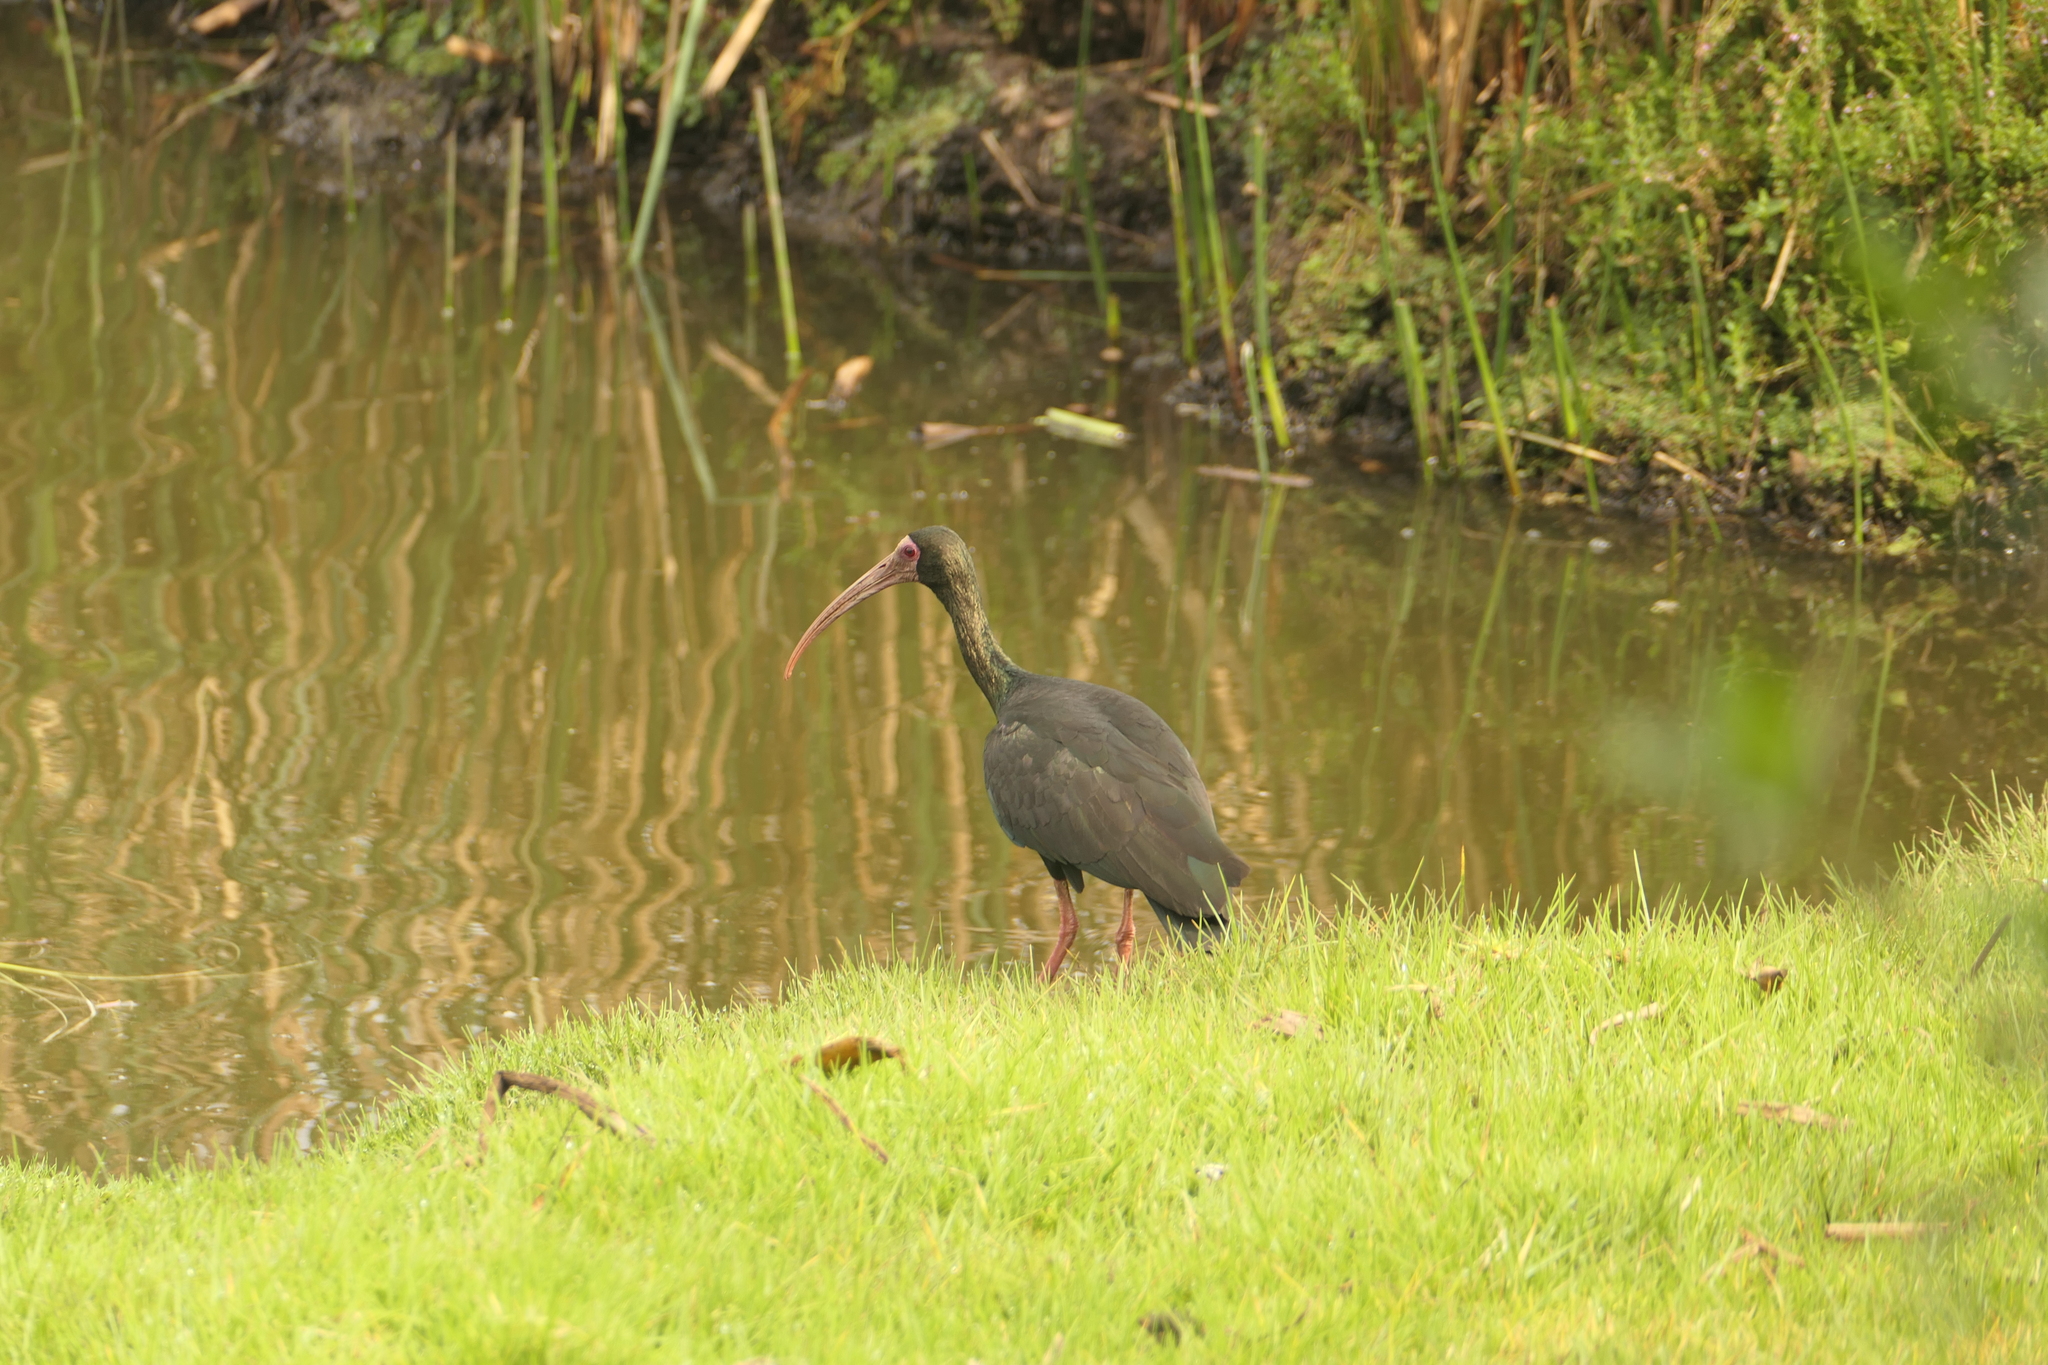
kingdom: Animalia
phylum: Chordata
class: Aves
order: Pelecaniformes
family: Threskiornithidae
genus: Phimosus
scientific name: Phimosus infuscatus
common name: Bare-faced ibis
